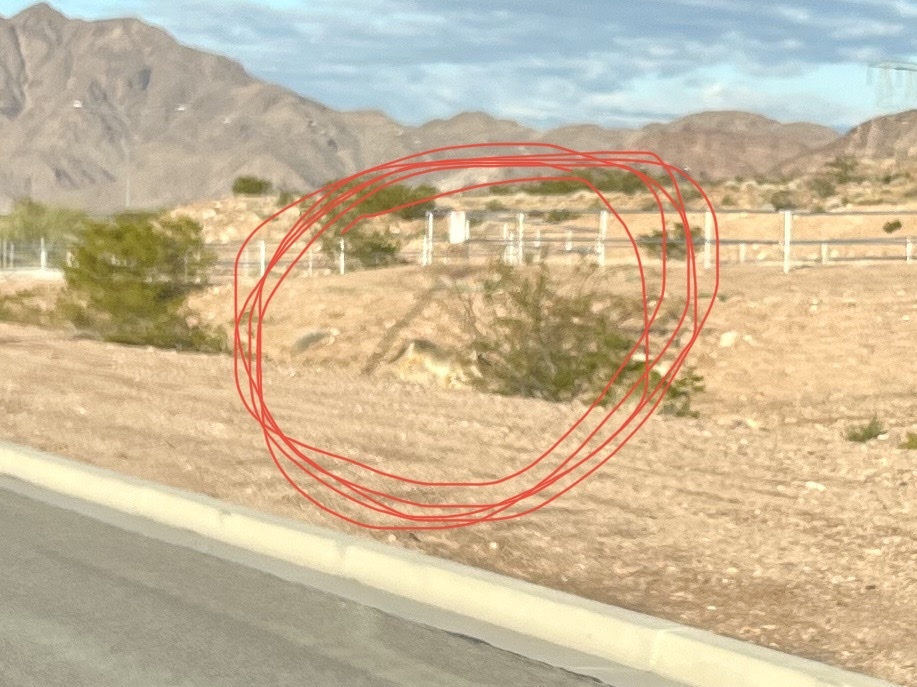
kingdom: Animalia
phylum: Chordata
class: Mammalia
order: Carnivora
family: Canidae
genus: Canis
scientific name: Canis latrans
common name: Coyote
